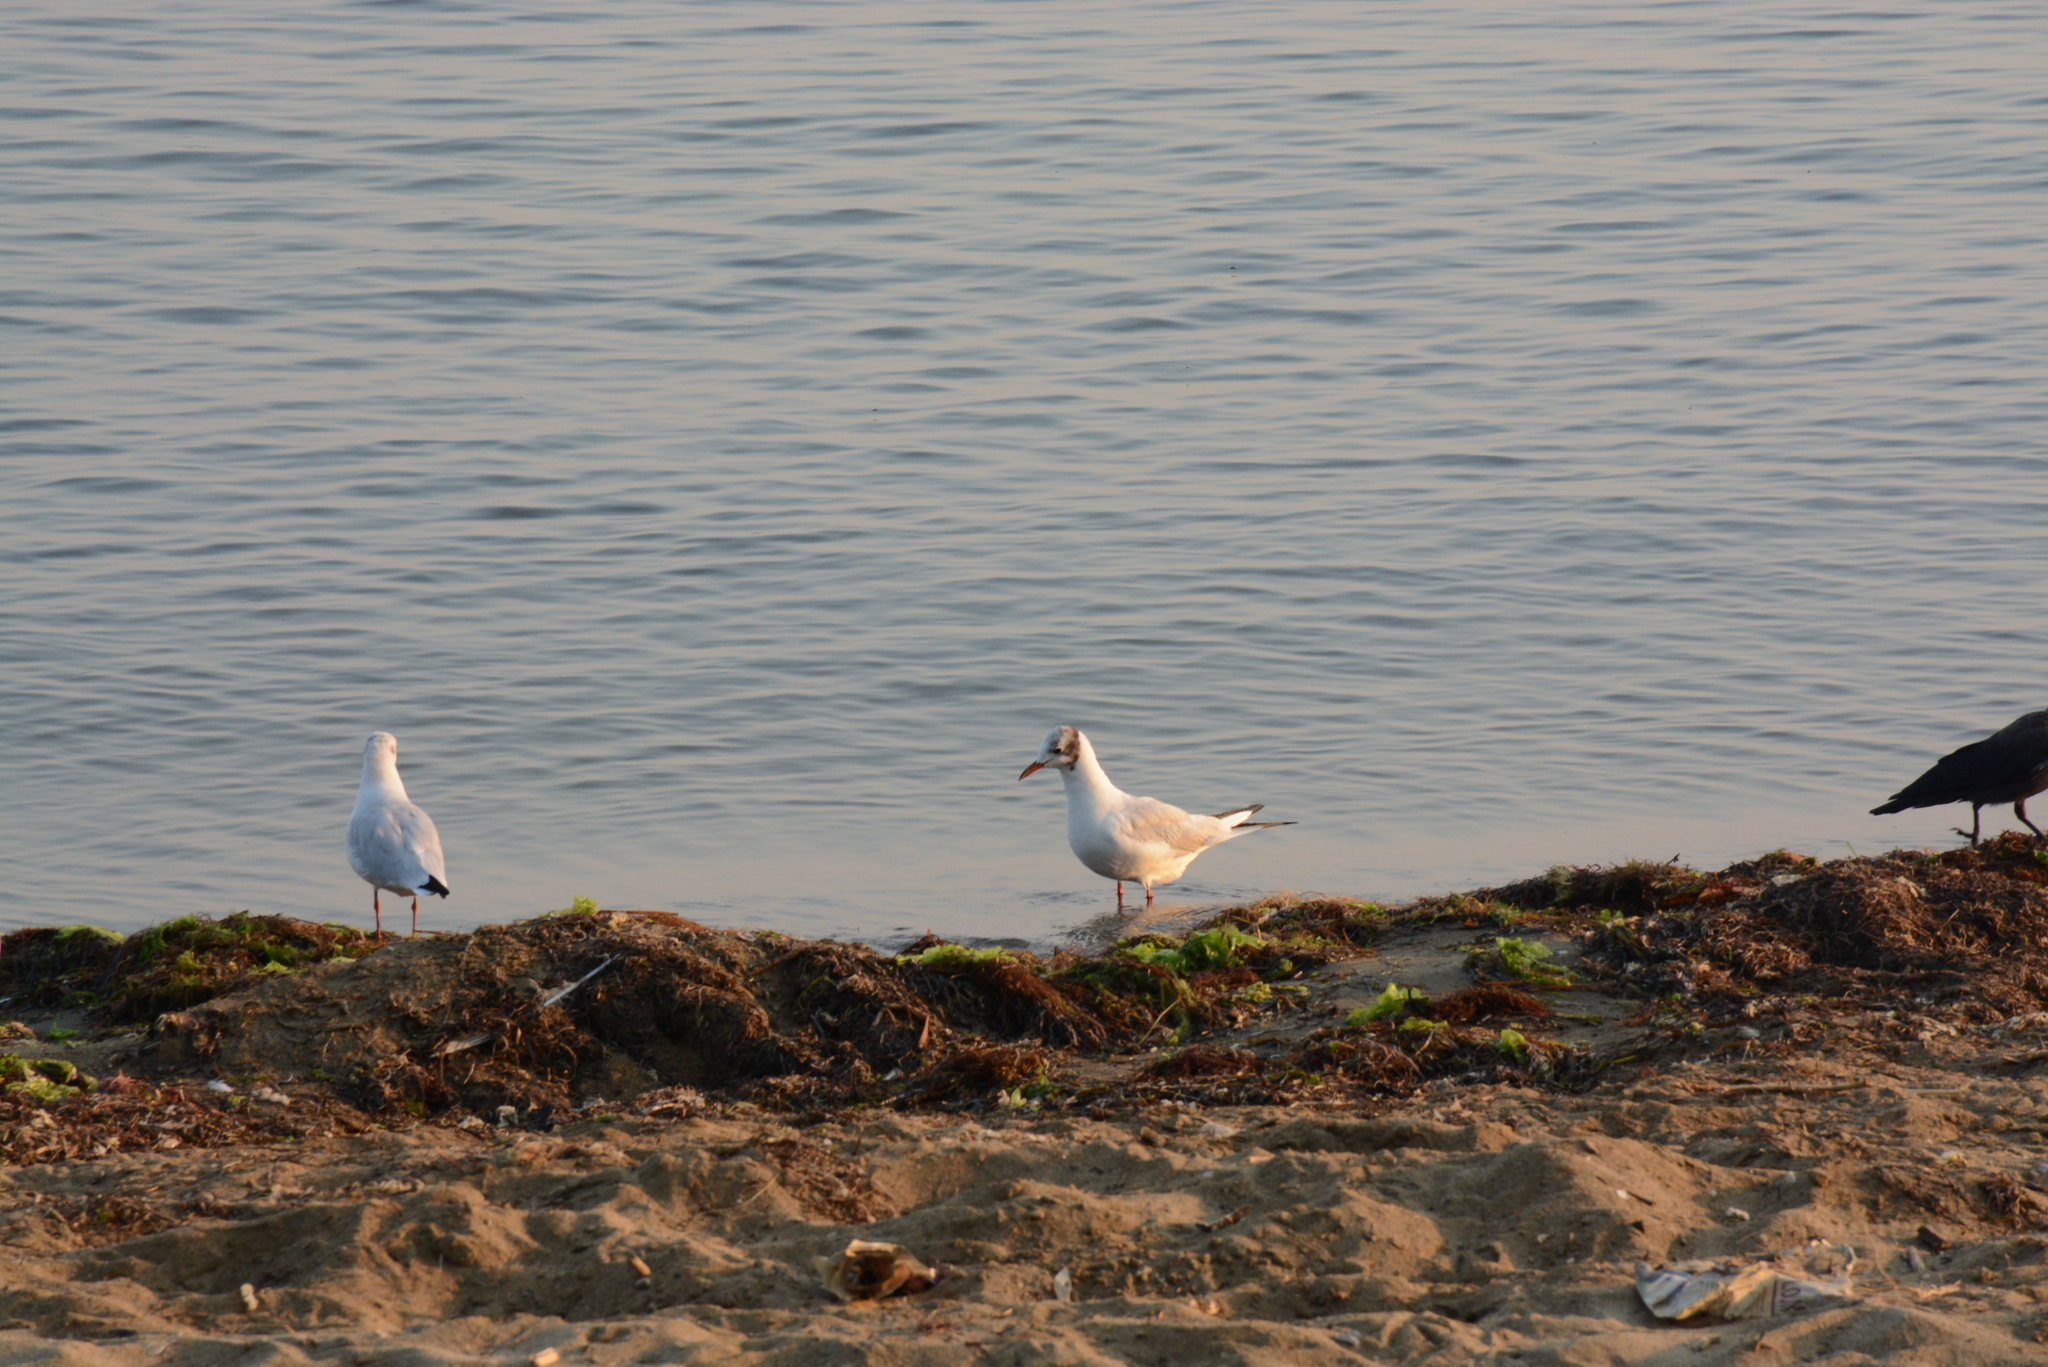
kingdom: Animalia
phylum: Chordata
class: Aves
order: Charadriiformes
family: Laridae
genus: Chroicocephalus
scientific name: Chroicocephalus ridibundus
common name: Black-headed gull
